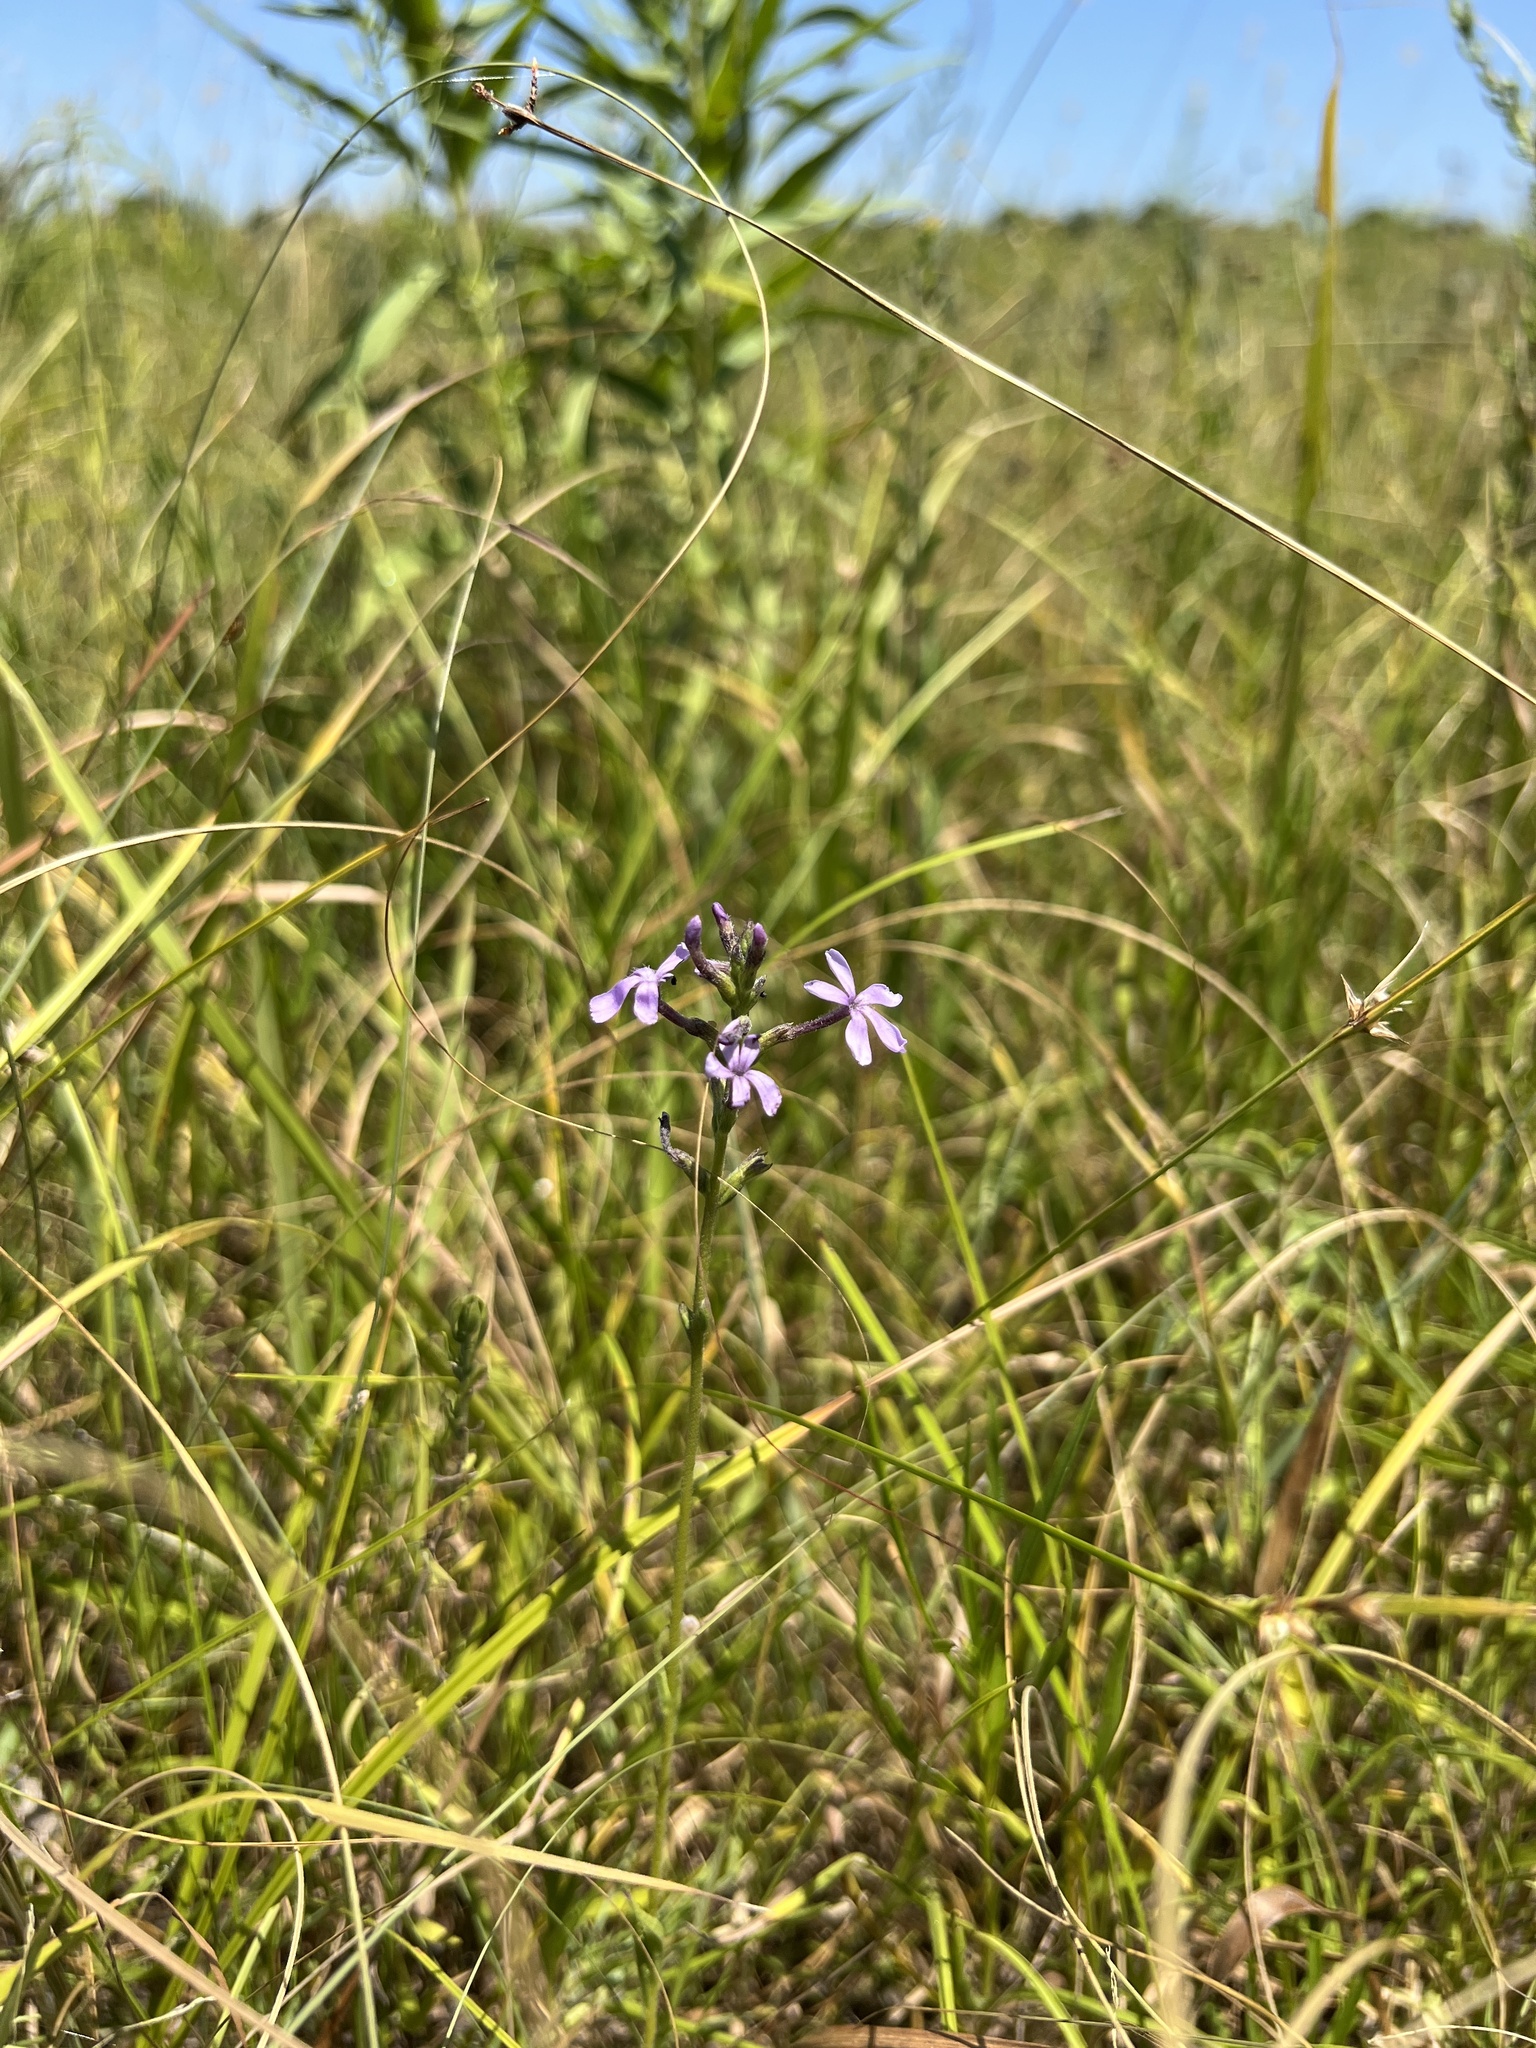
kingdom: Plantae
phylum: Tracheophyta
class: Magnoliopsida
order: Lamiales
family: Orobanchaceae
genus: Buchnera
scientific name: Buchnera americana
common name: American bluehearts
